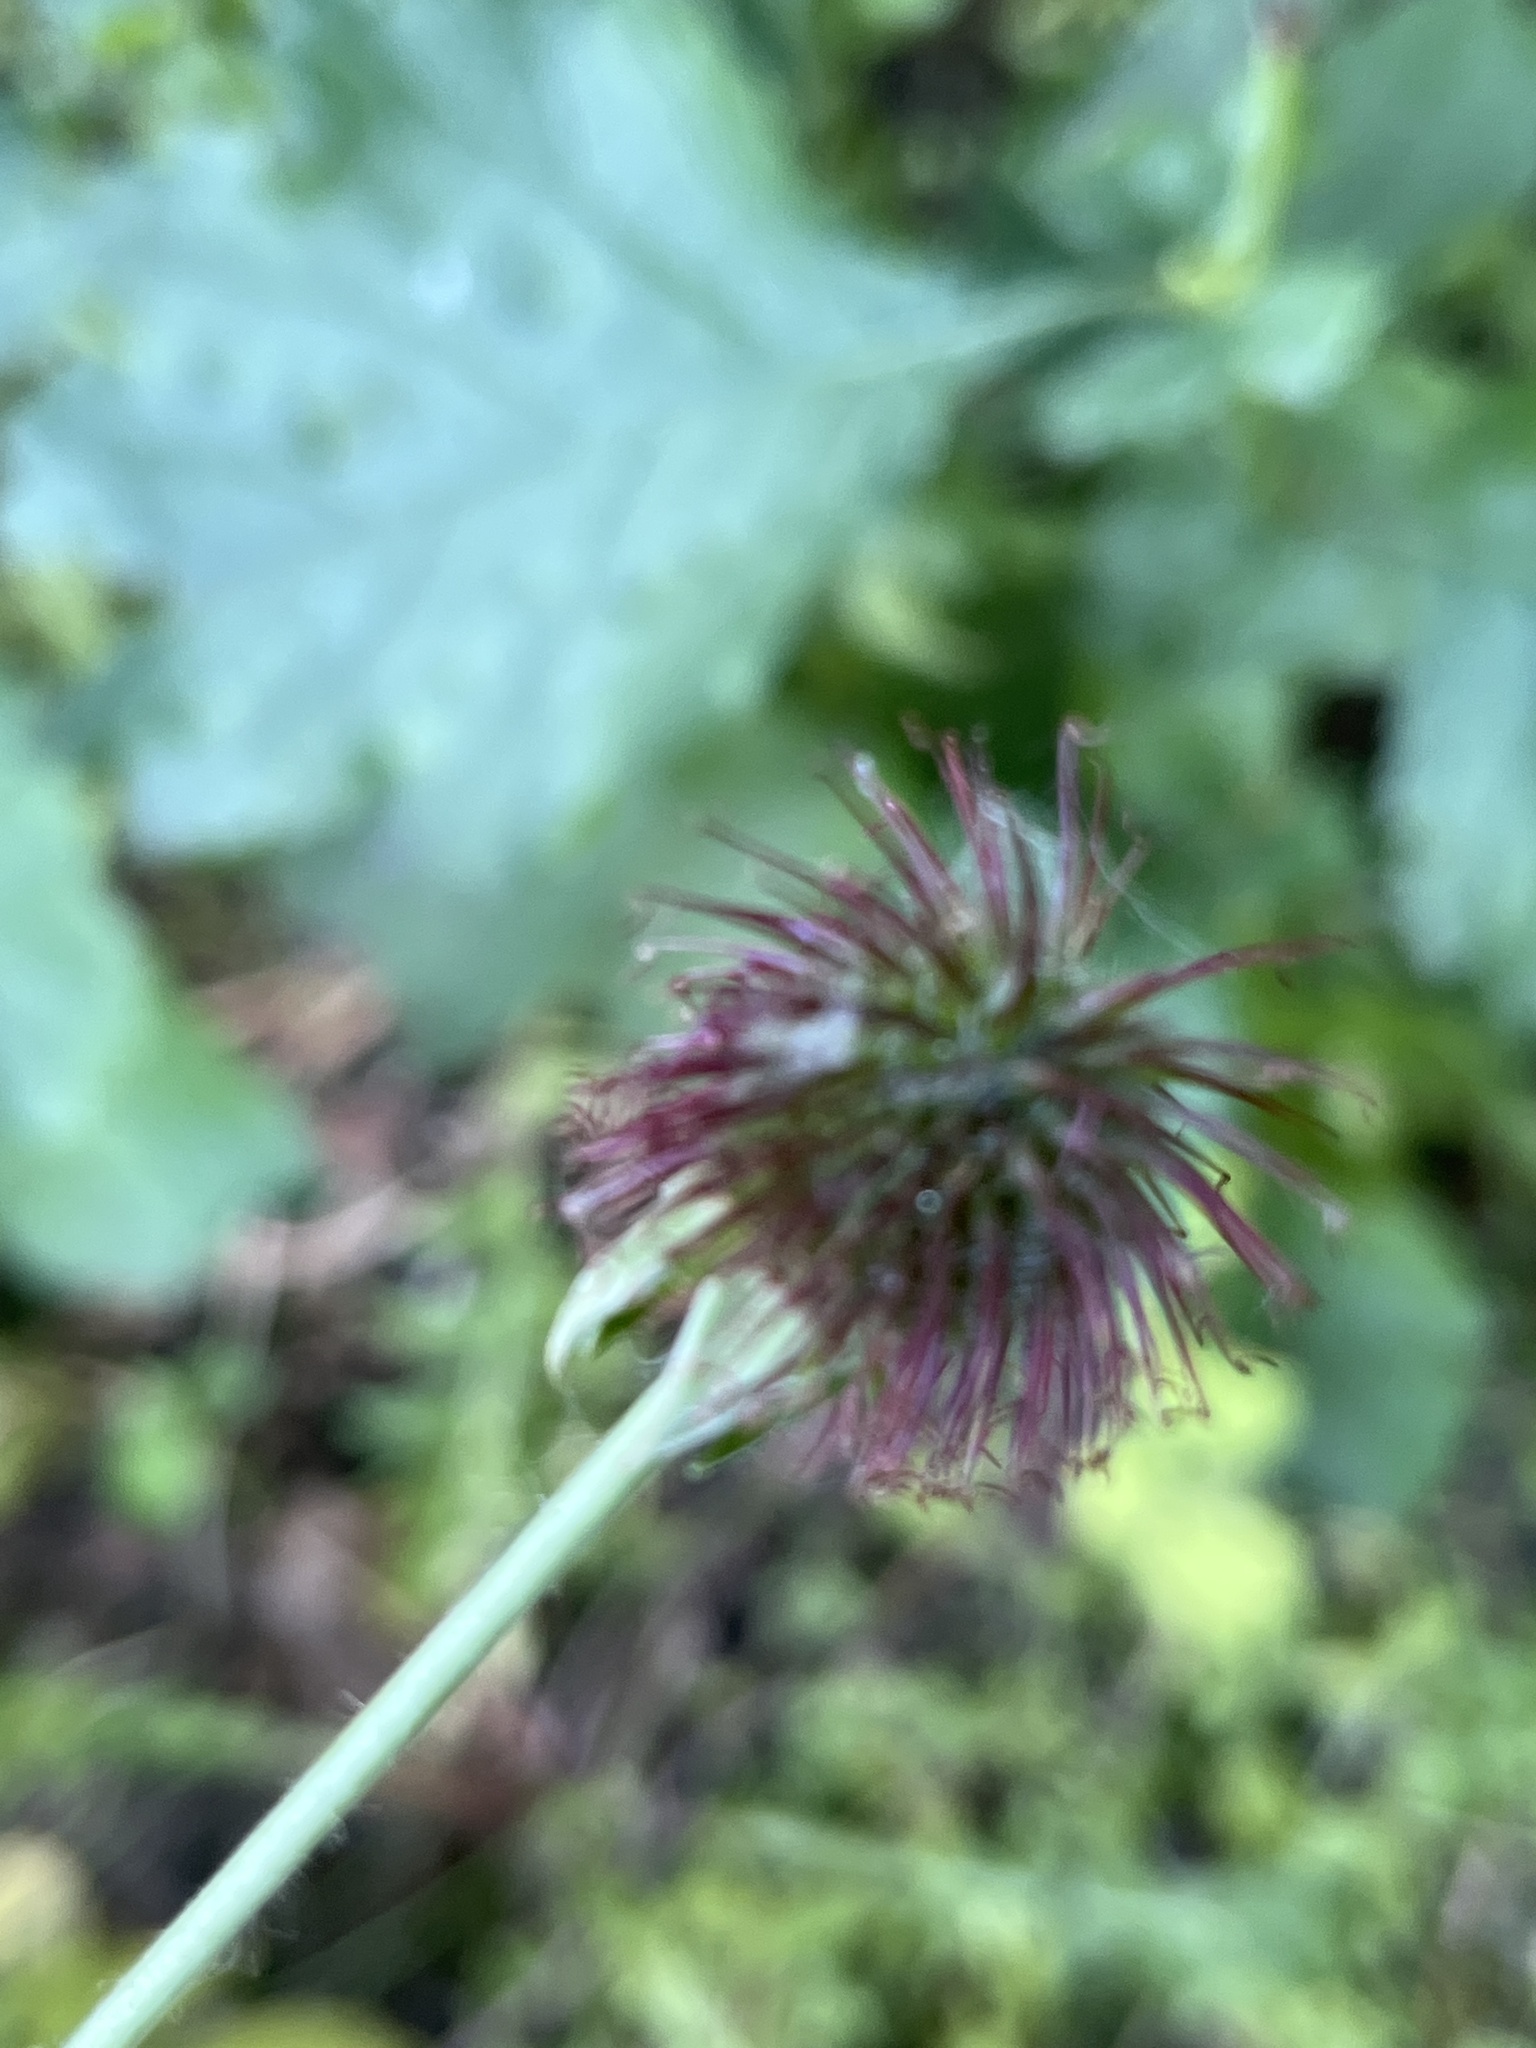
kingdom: Plantae
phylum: Tracheophyta
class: Magnoliopsida
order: Rosales
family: Rosaceae
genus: Geum
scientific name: Geum urbanum
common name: Wood avens
